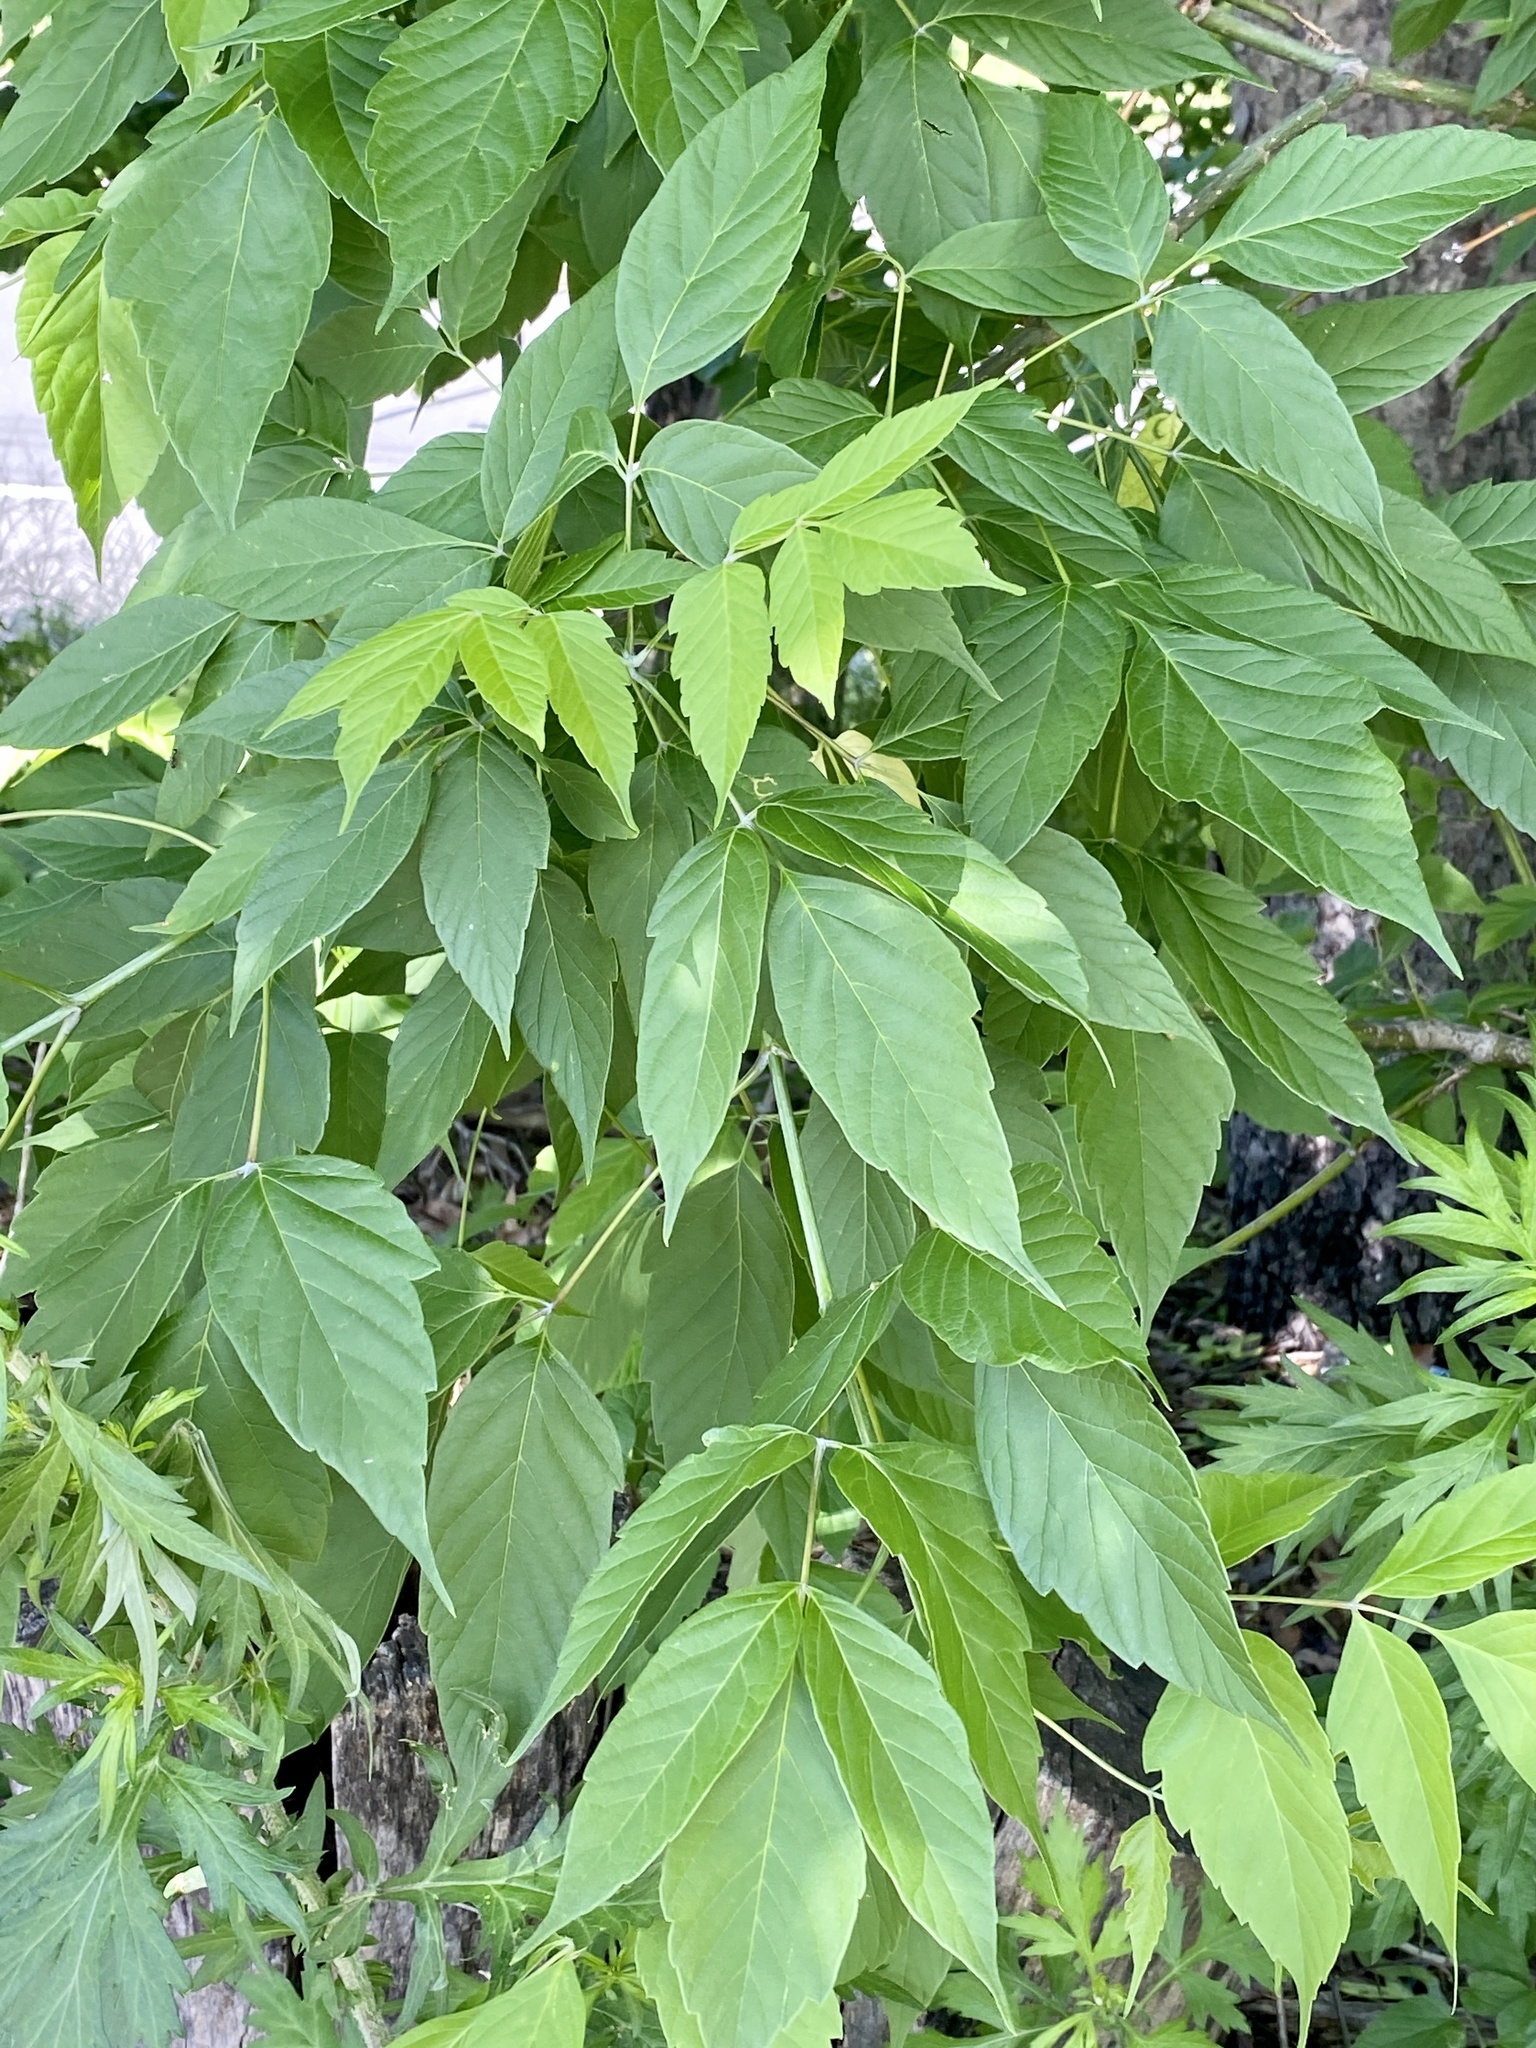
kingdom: Plantae
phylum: Tracheophyta
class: Magnoliopsida
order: Sapindales
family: Sapindaceae
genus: Acer
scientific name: Acer negundo
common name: Ashleaf maple
